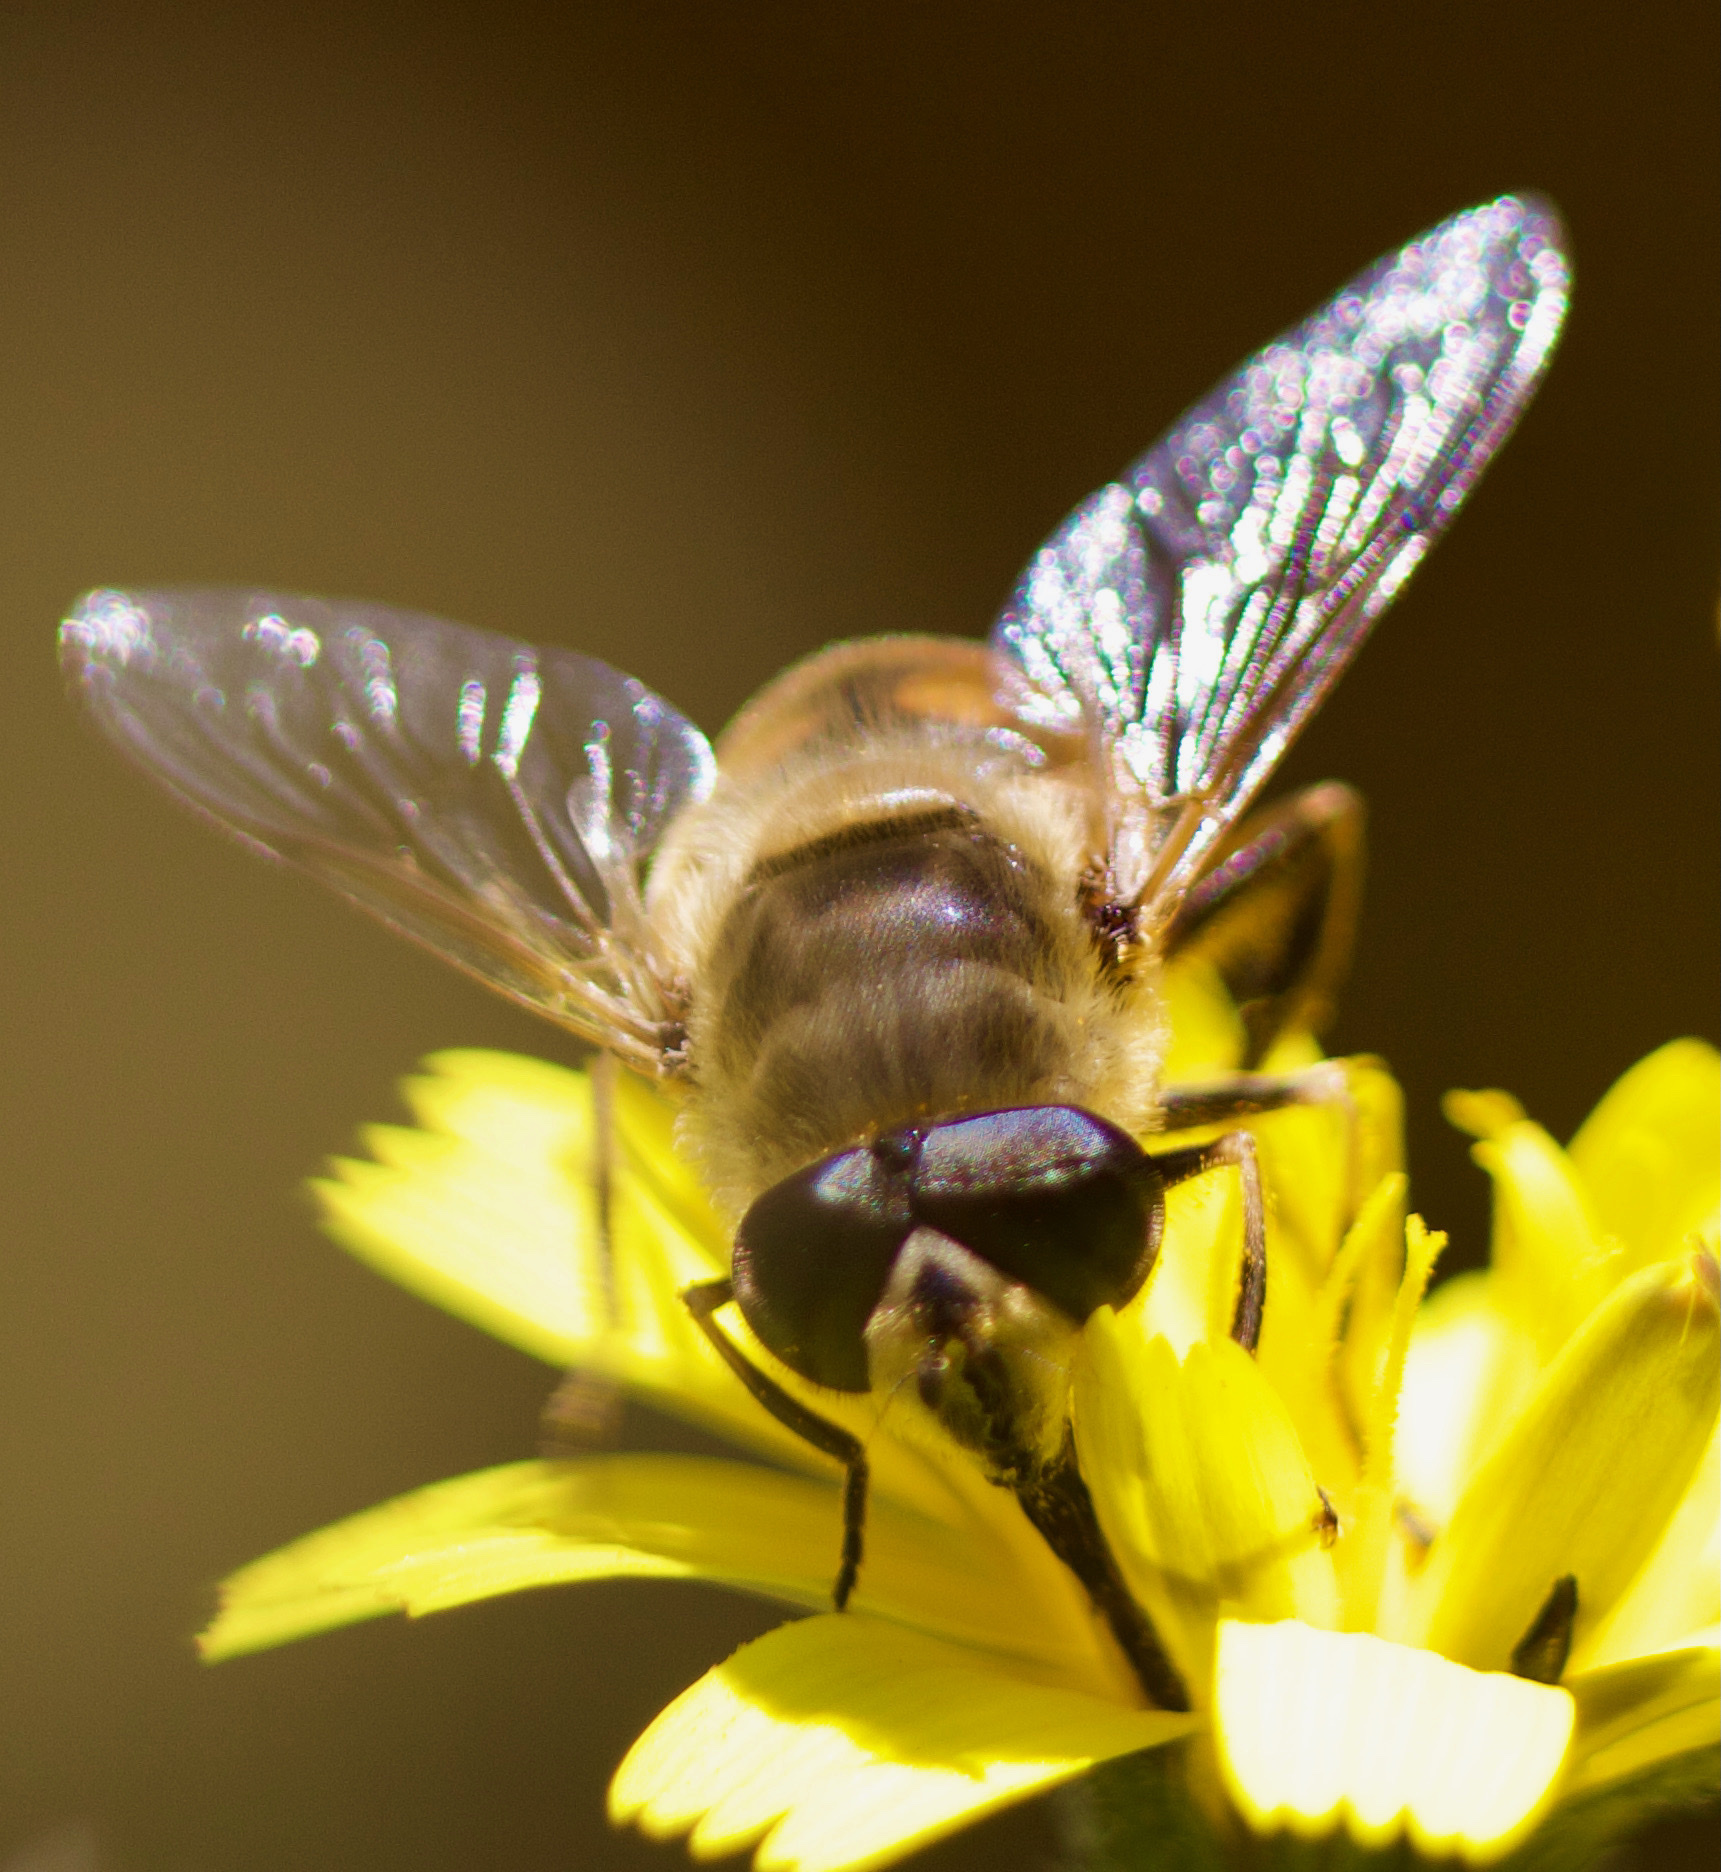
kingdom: Animalia
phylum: Arthropoda
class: Insecta
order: Diptera
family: Syrphidae
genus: Eristalis
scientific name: Eristalis tenax
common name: Drone fly
